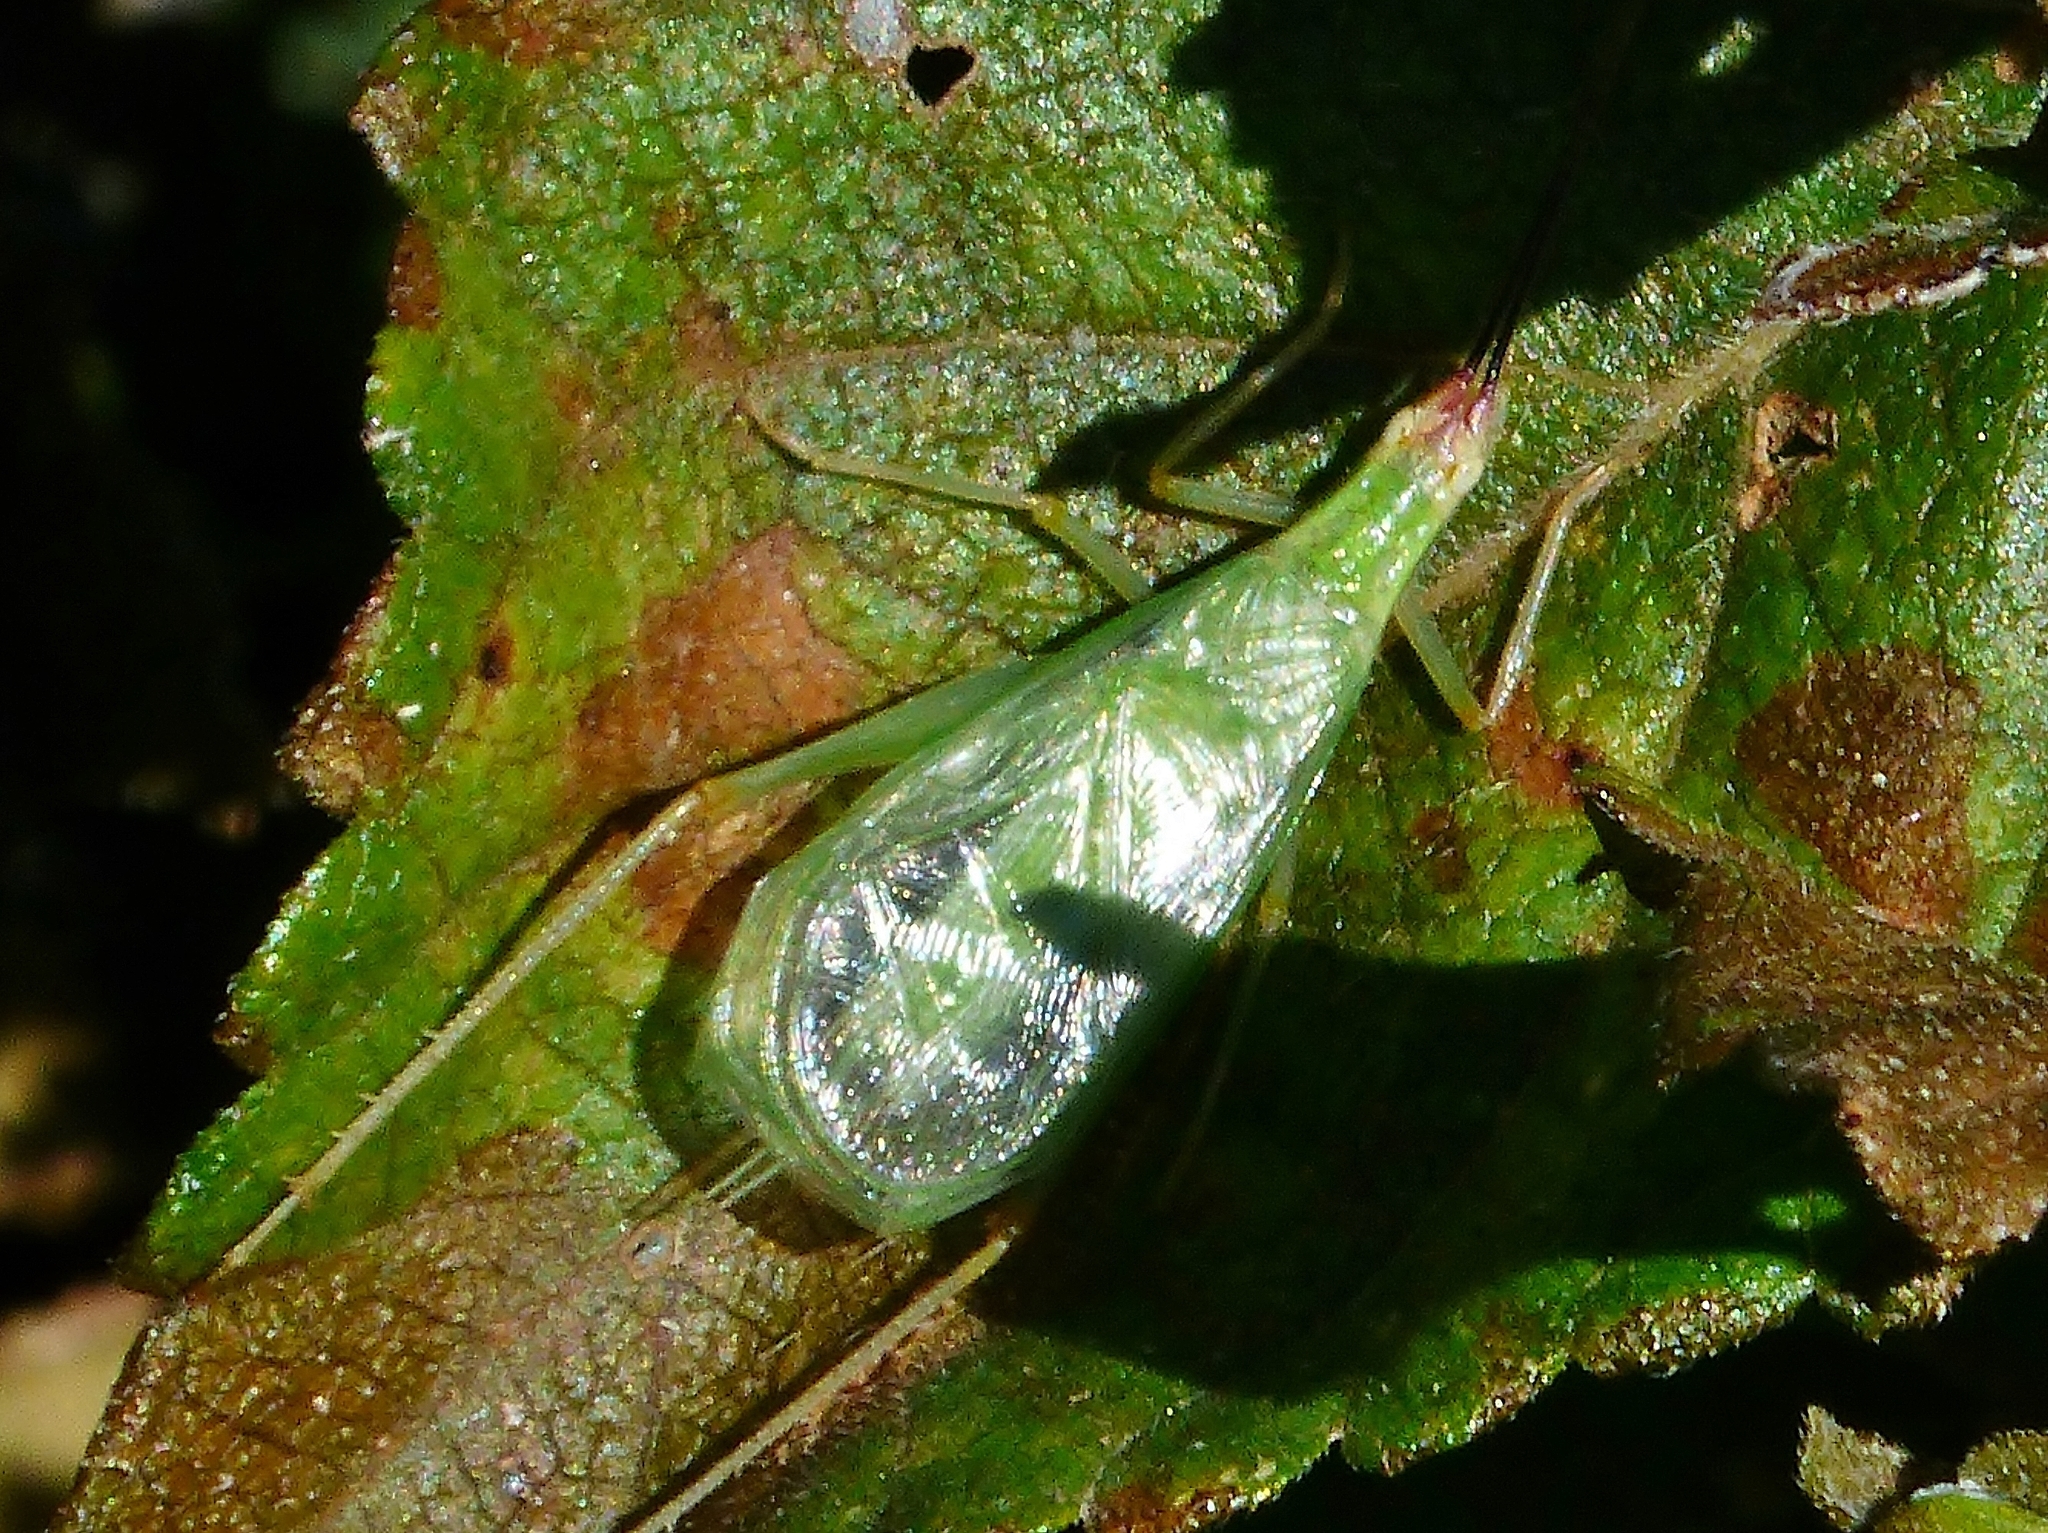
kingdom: Animalia
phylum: Arthropoda
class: Insecta
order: Orthoptera
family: Gryllidae
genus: Oecanthus
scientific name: Oecanthus varicornis
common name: Different-horned tree cricket
